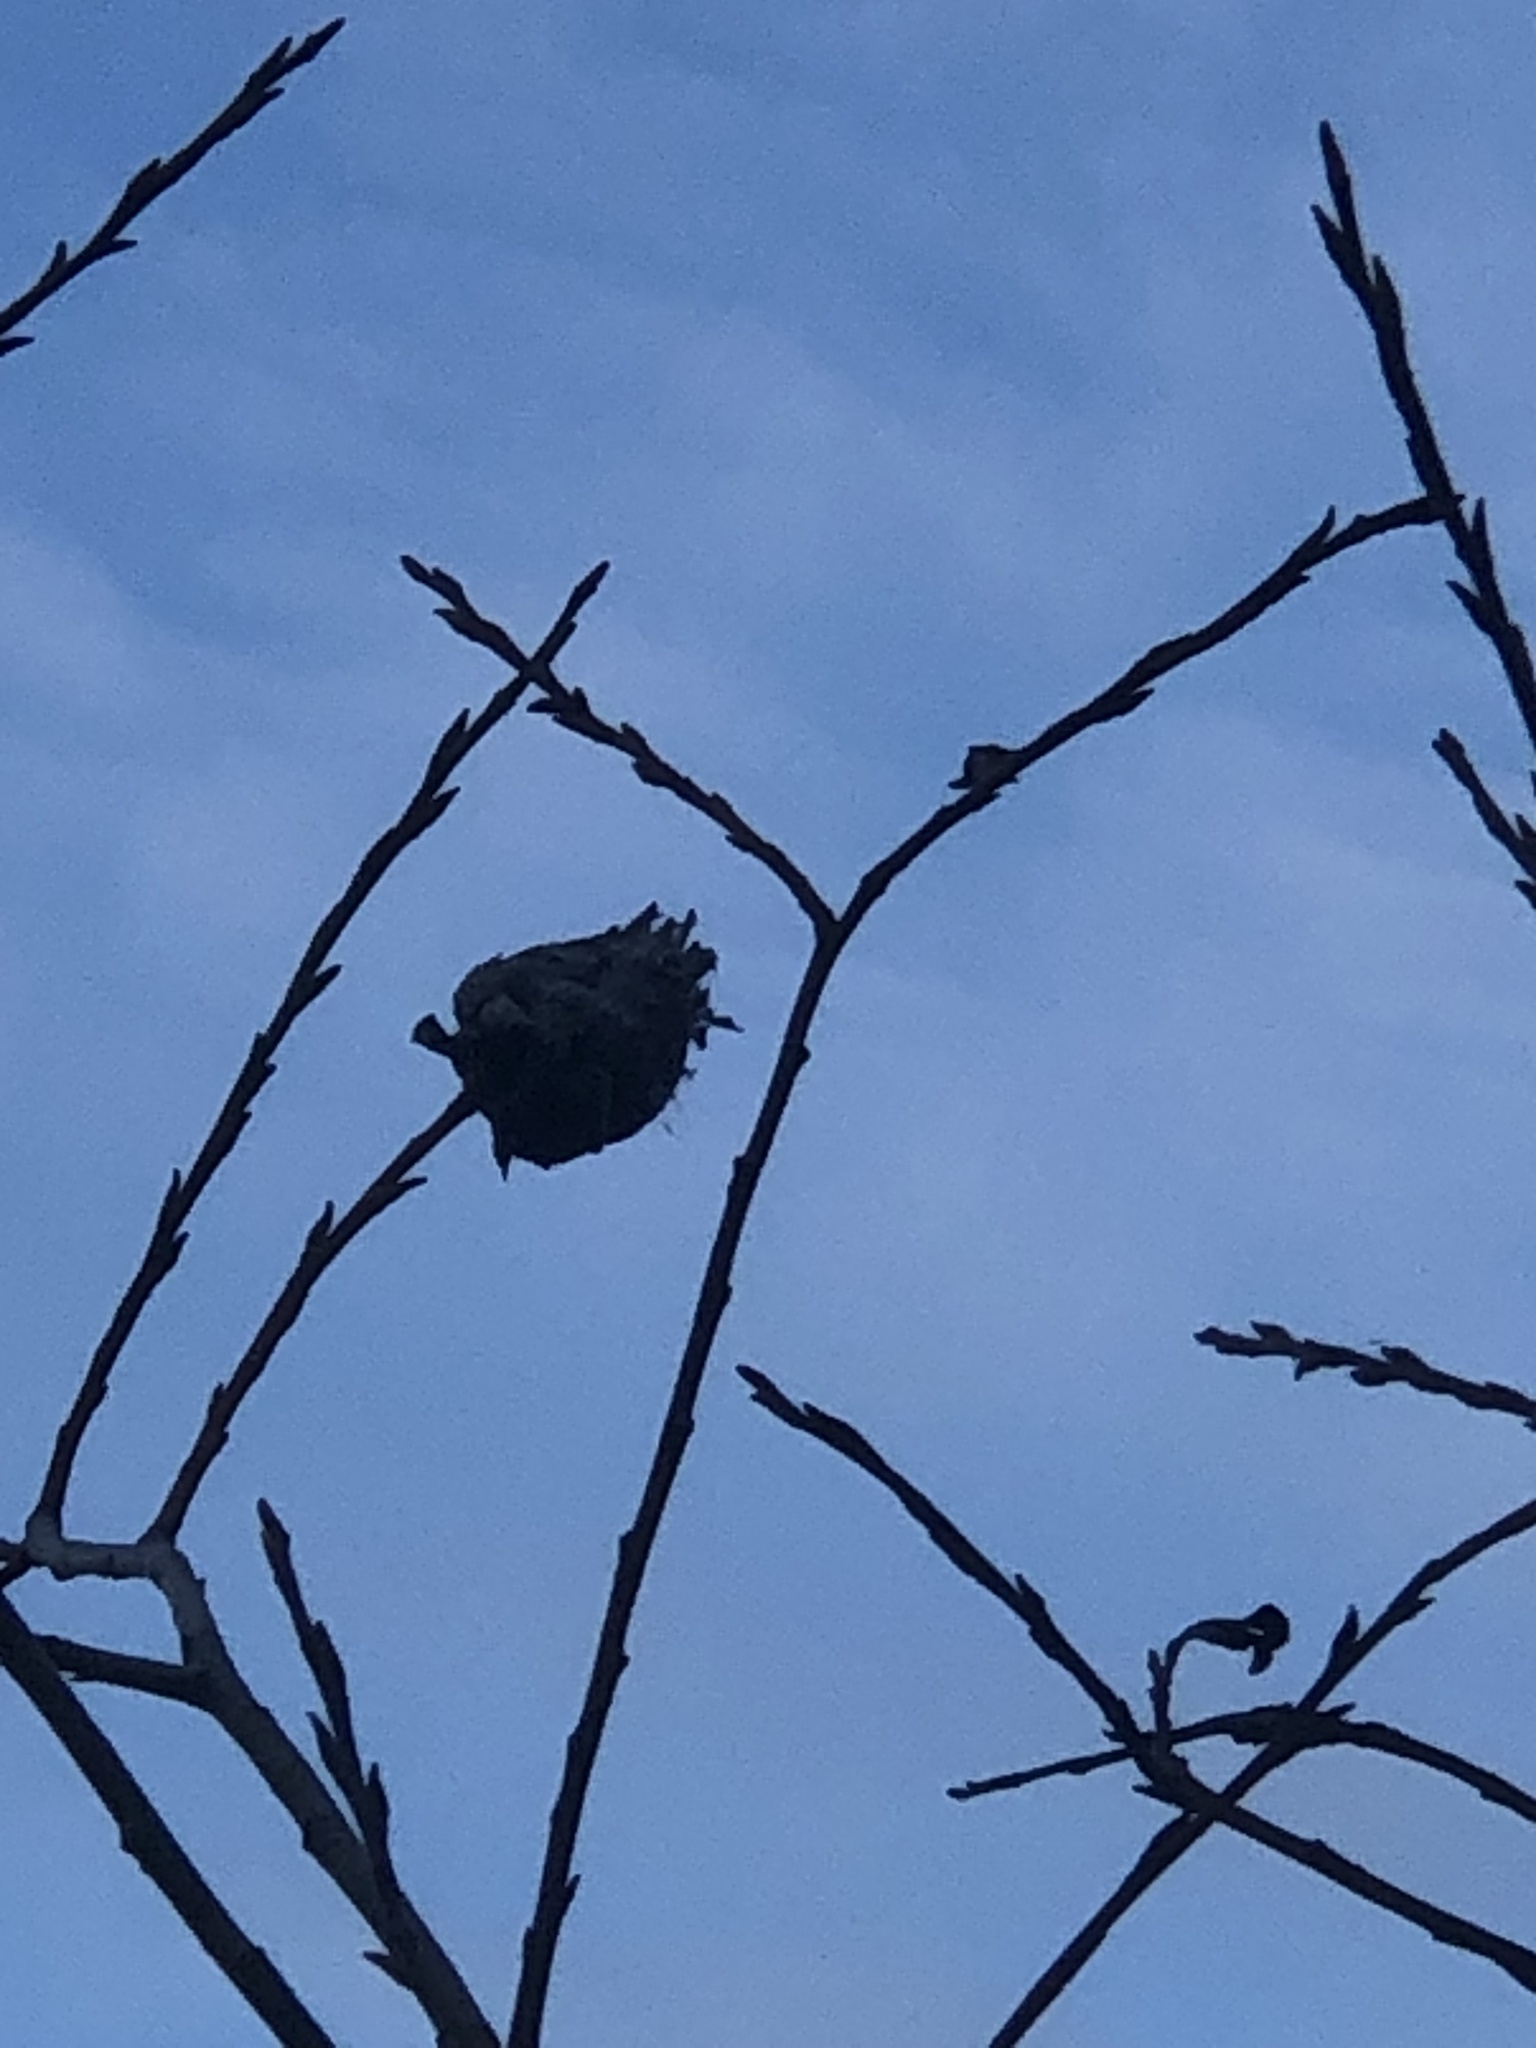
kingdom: Animalia
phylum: Arthropoda
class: Insecta
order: Diptera
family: Cecidomyiidae
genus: Rabdophaga
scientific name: Rabdophaga strobiloides
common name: Willow pinecone gall midge
